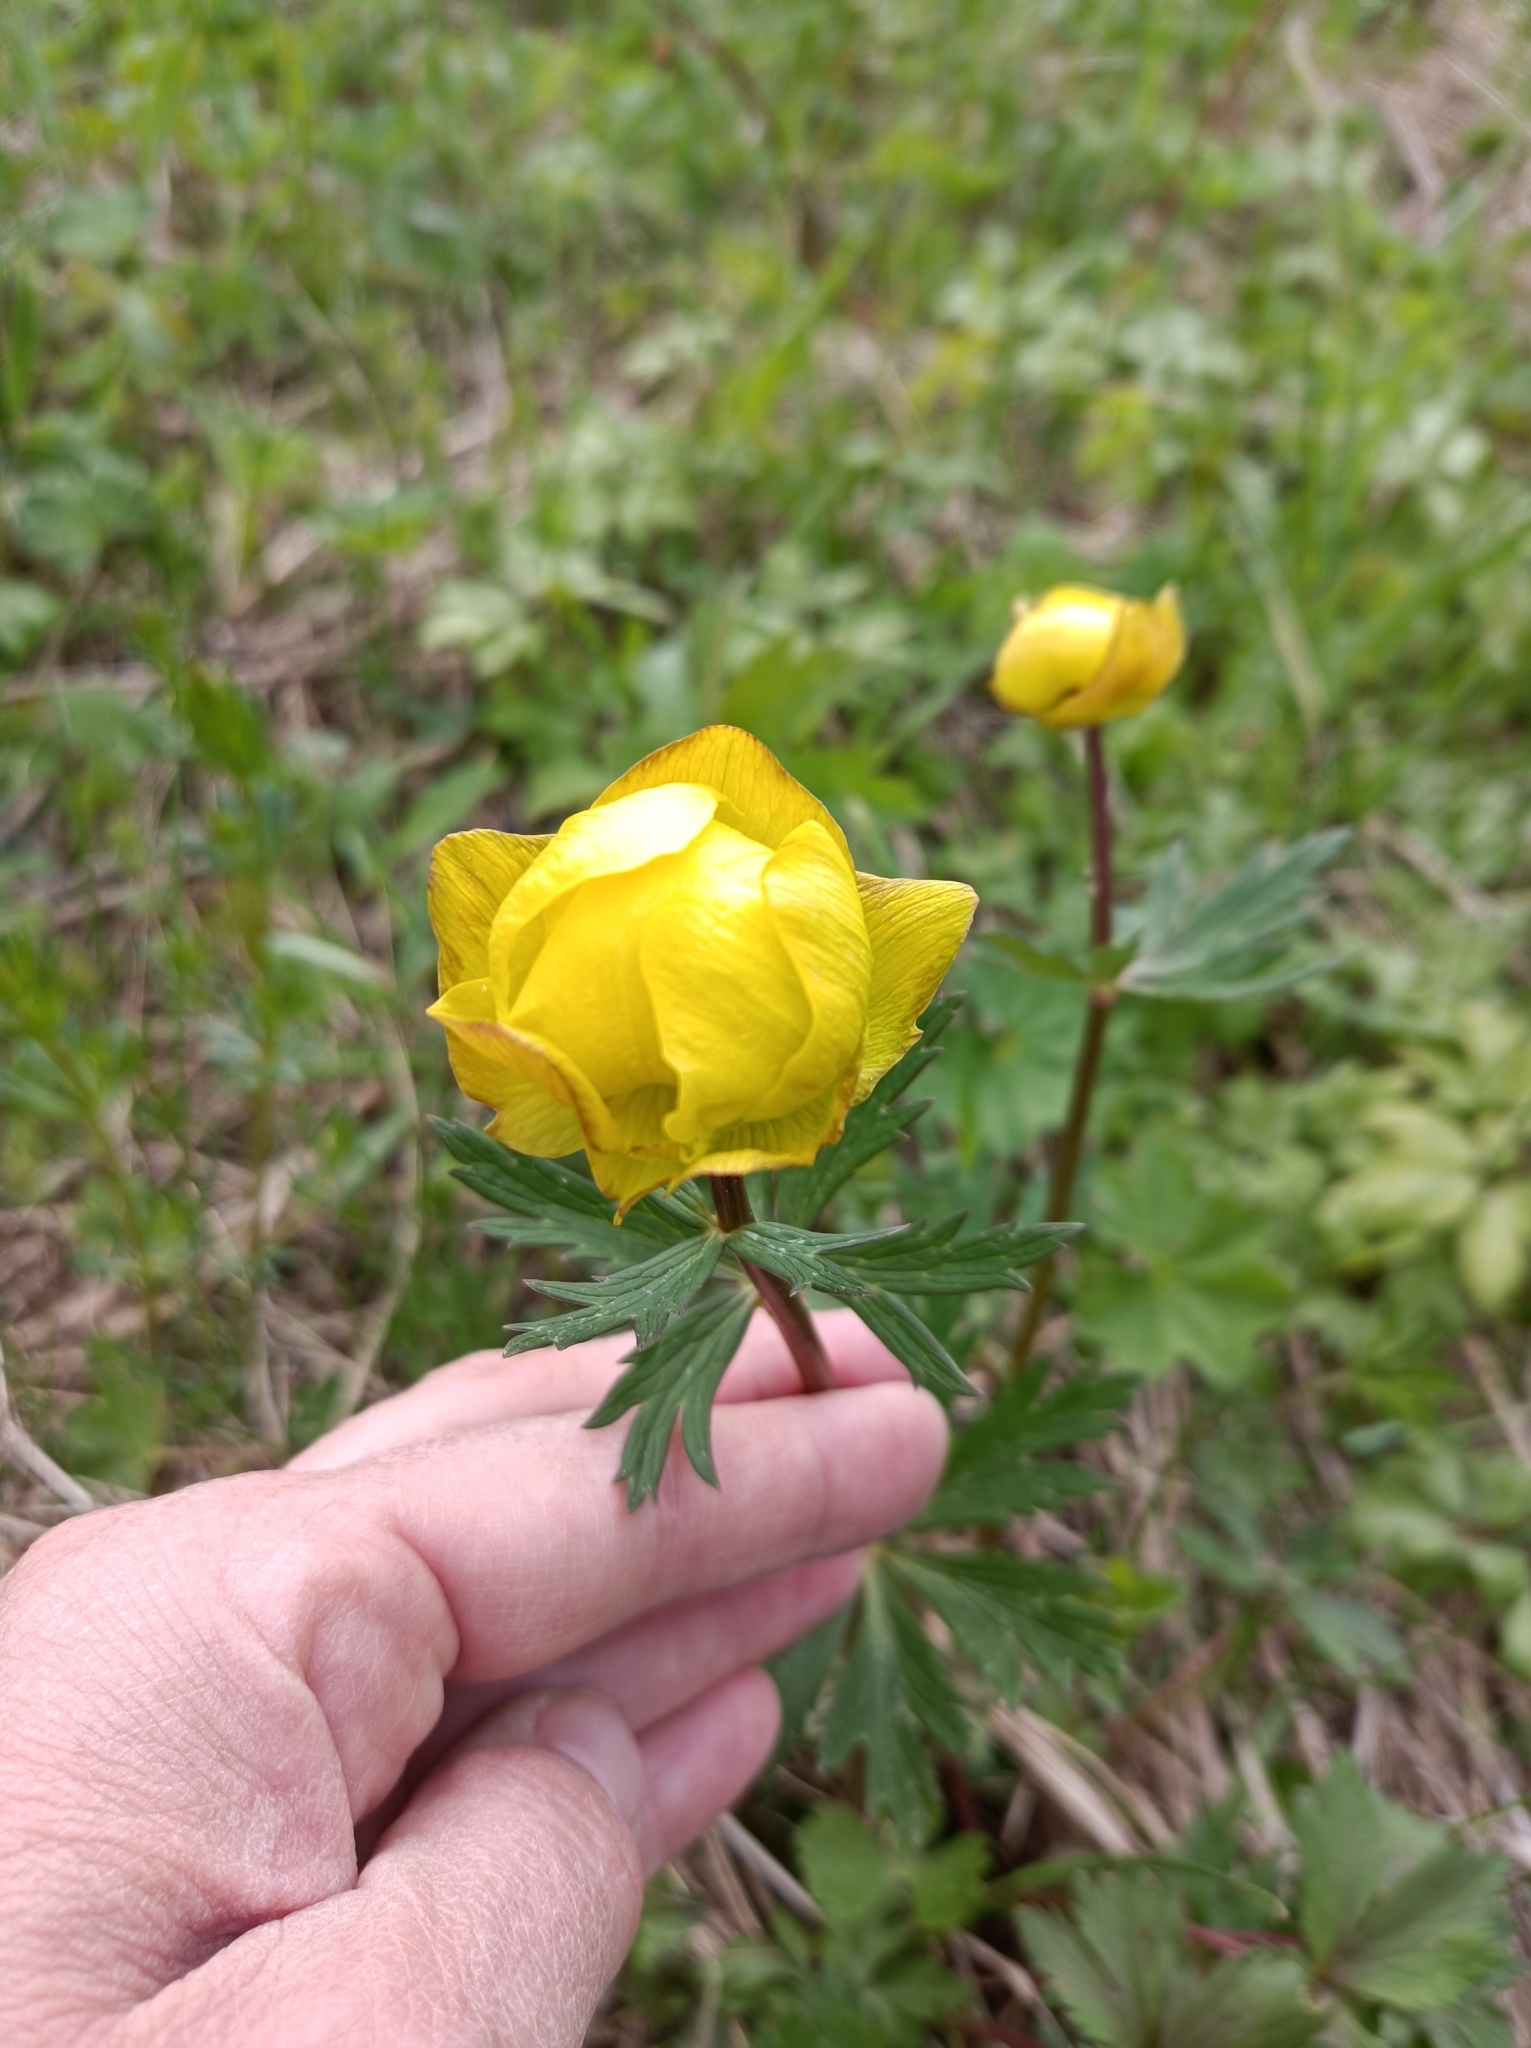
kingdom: Plantae
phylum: Tracheophyta
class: Magnoliopsida
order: Ranunculales
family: Ranunculaceae
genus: Trollius
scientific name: Trollius europaeus
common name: European globeflower
